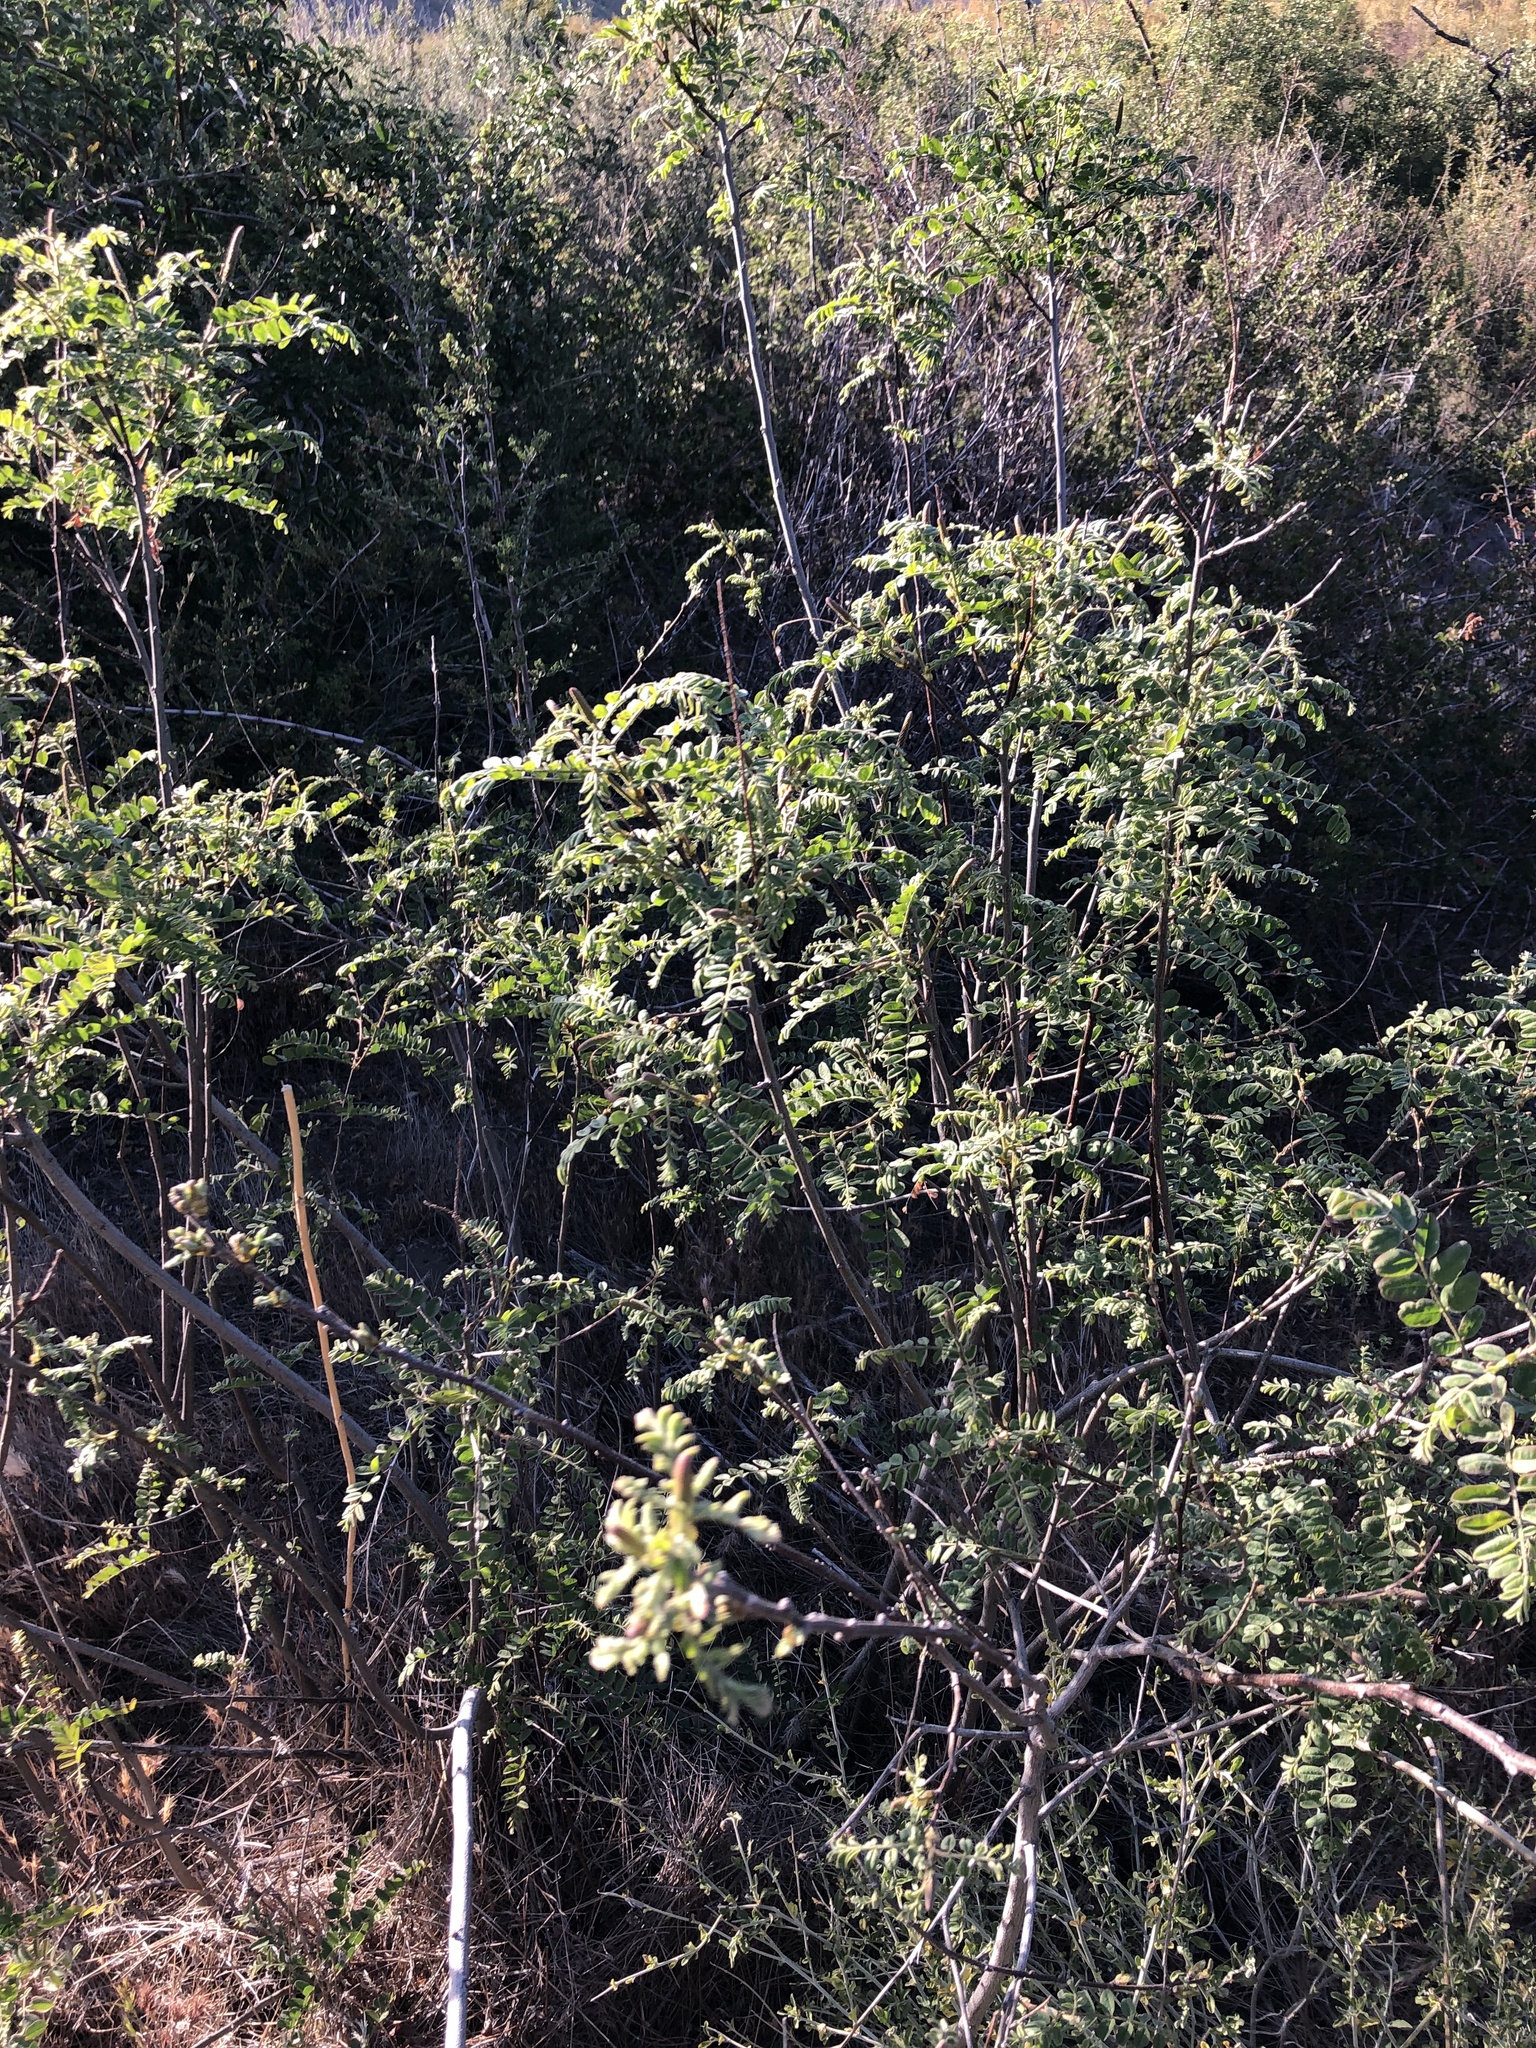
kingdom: Plantae
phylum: Tracheophyta
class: Magnoliopsida
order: Fabales
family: Fabaceae
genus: Amorpha
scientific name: Amorpha californica
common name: California indigobush
